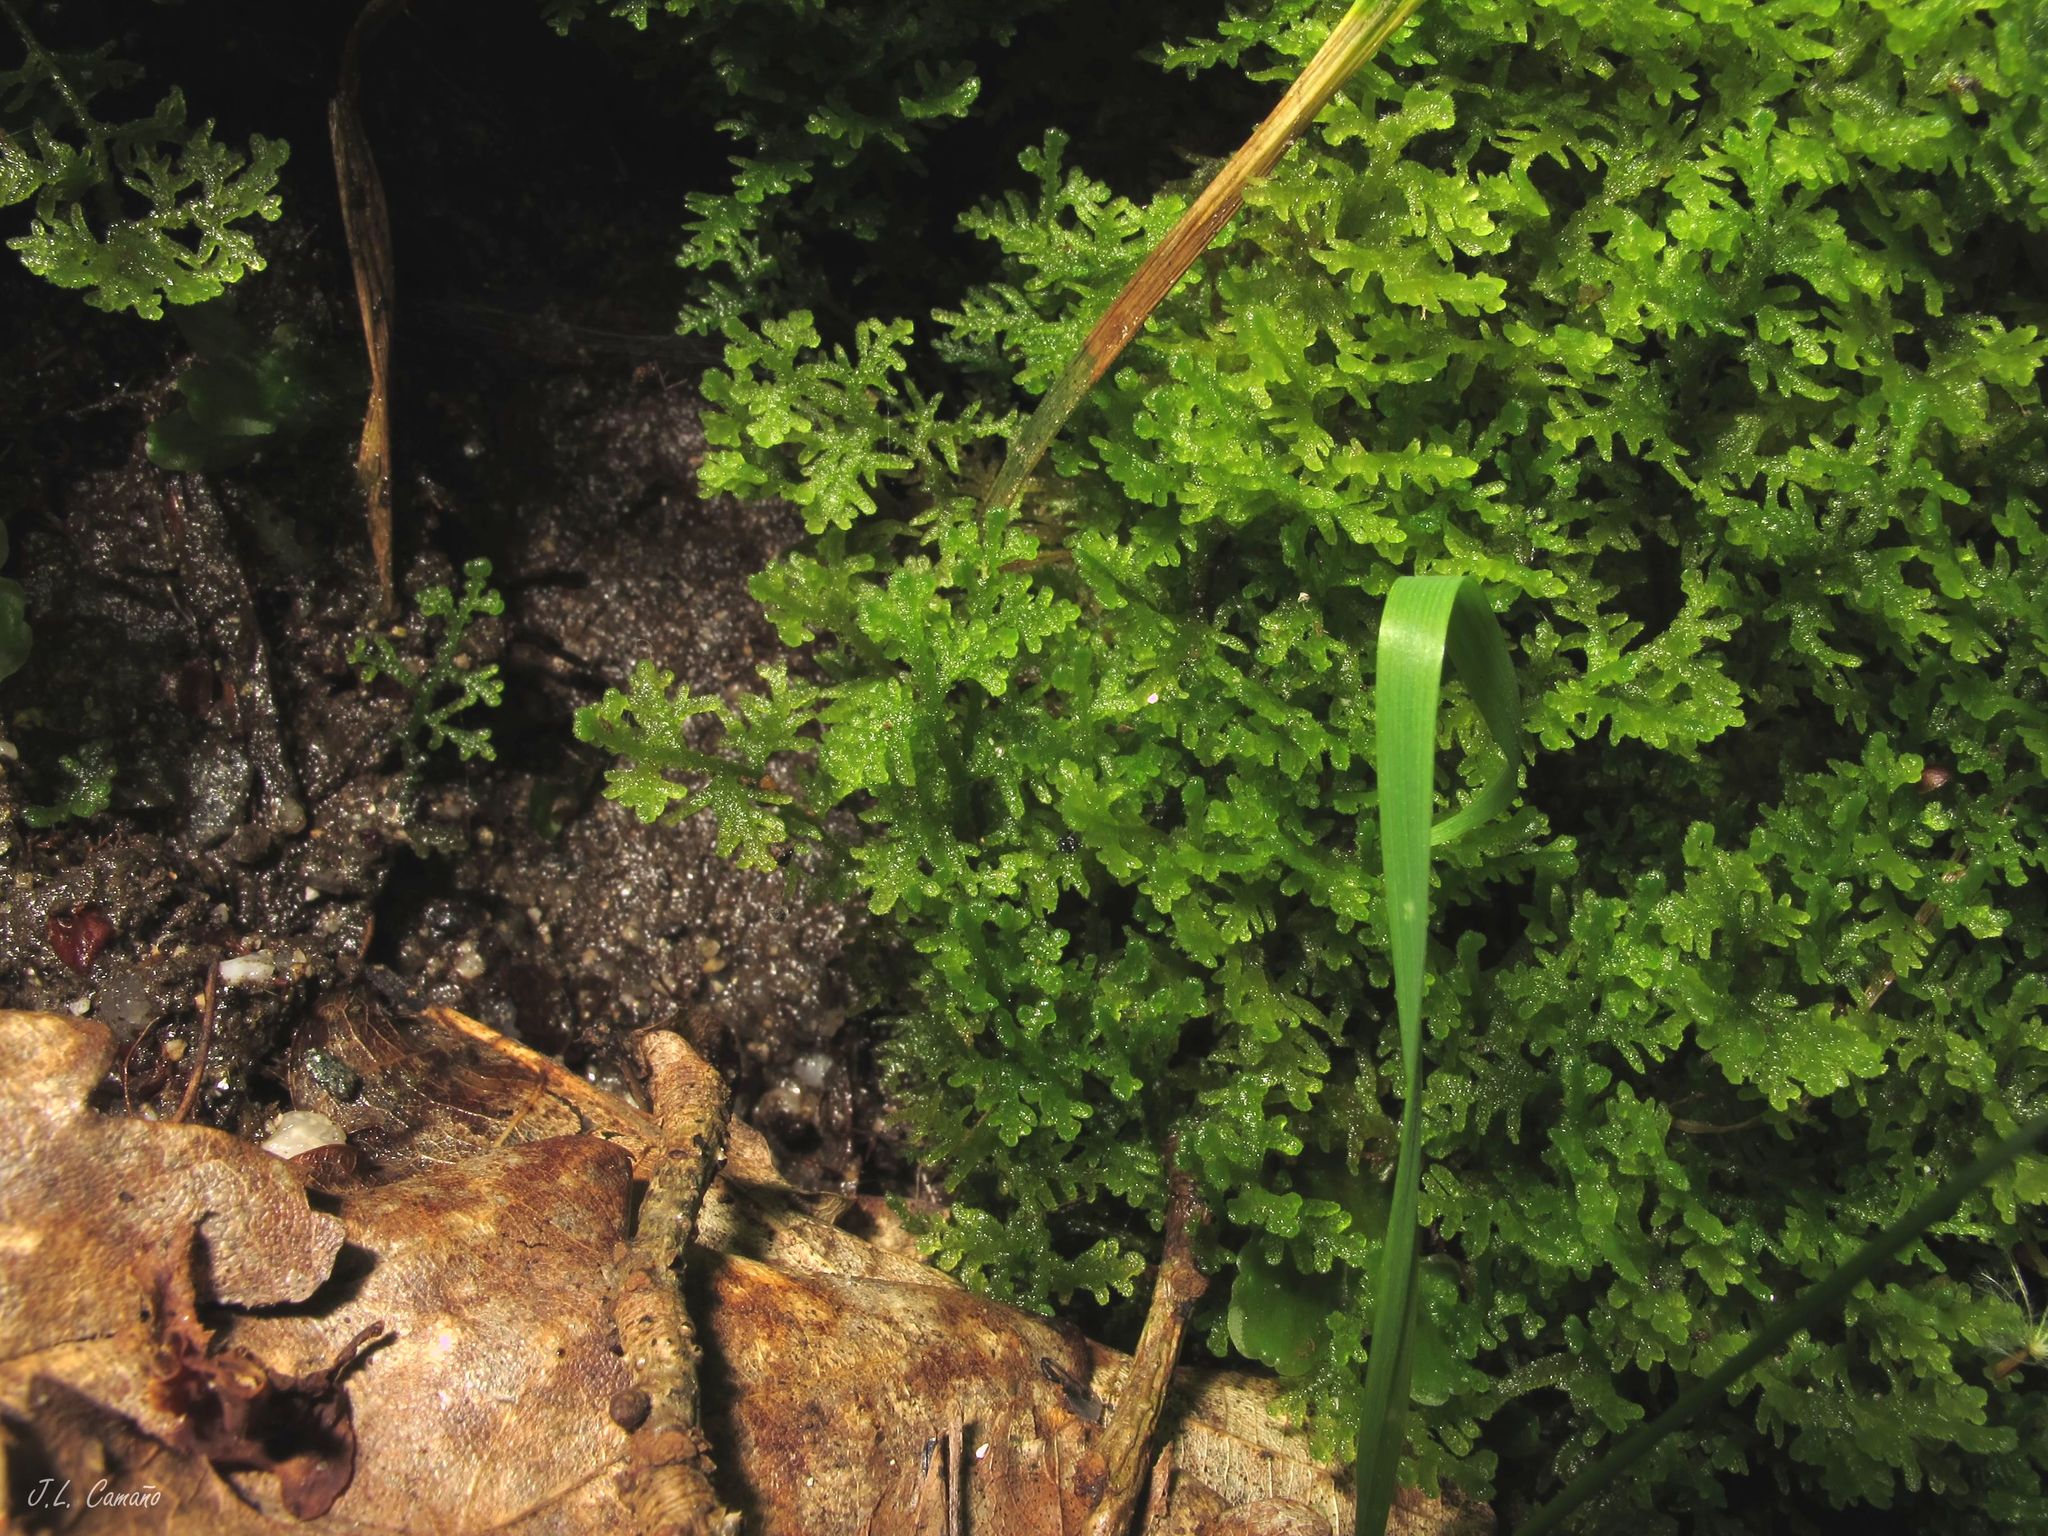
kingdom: Plantae
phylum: Marchantiophyta
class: Jungermanniopsida
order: Jungermanniales
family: Trichocoleaceae
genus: Trichocolea
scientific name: Trichocolea tomentella
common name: Woolly liverwort
